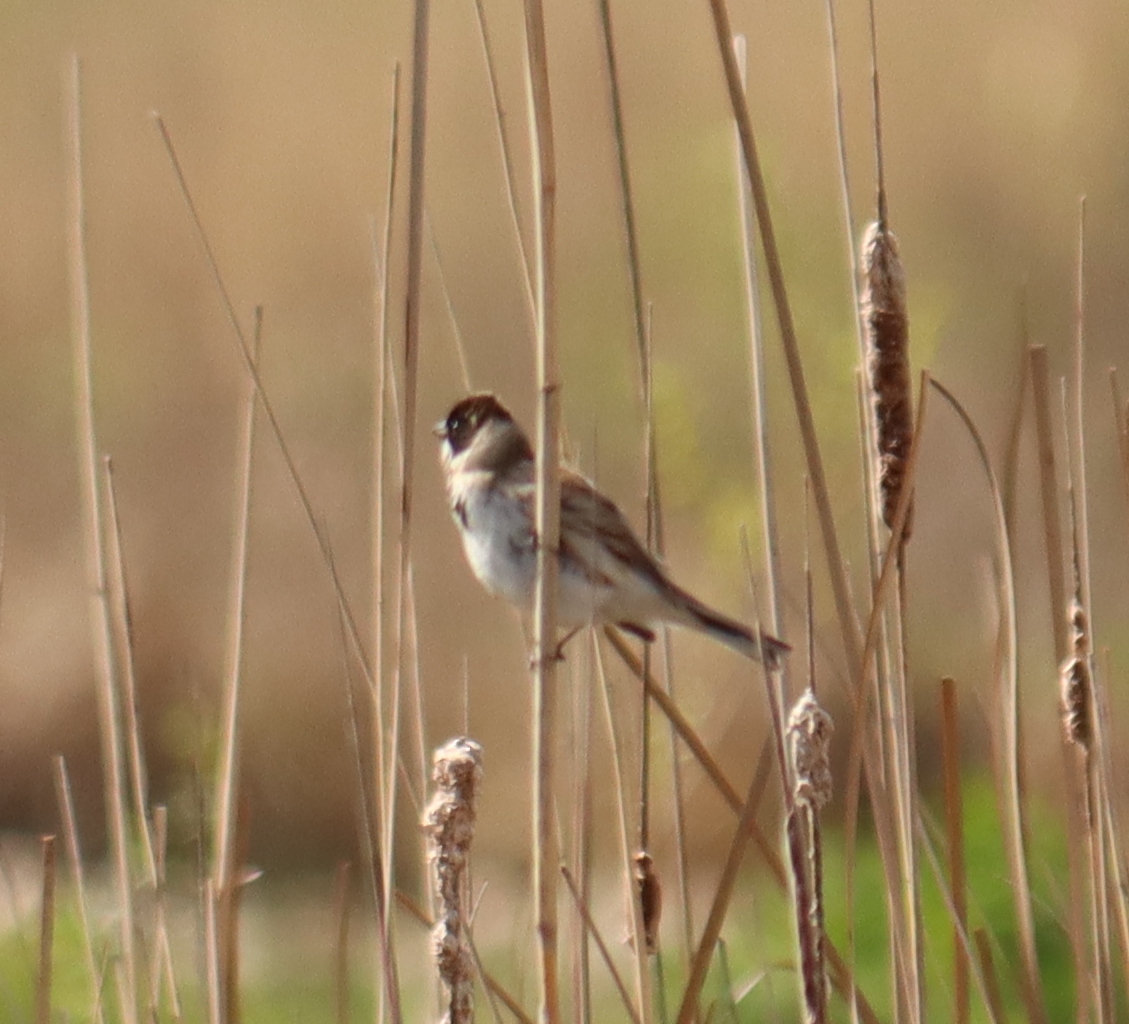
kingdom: Animalia
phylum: Chordata
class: Aves
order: Passeriformes
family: Emberizidae
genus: Emberiza
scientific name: Emberiza schoeniclus
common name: Reed bunting
